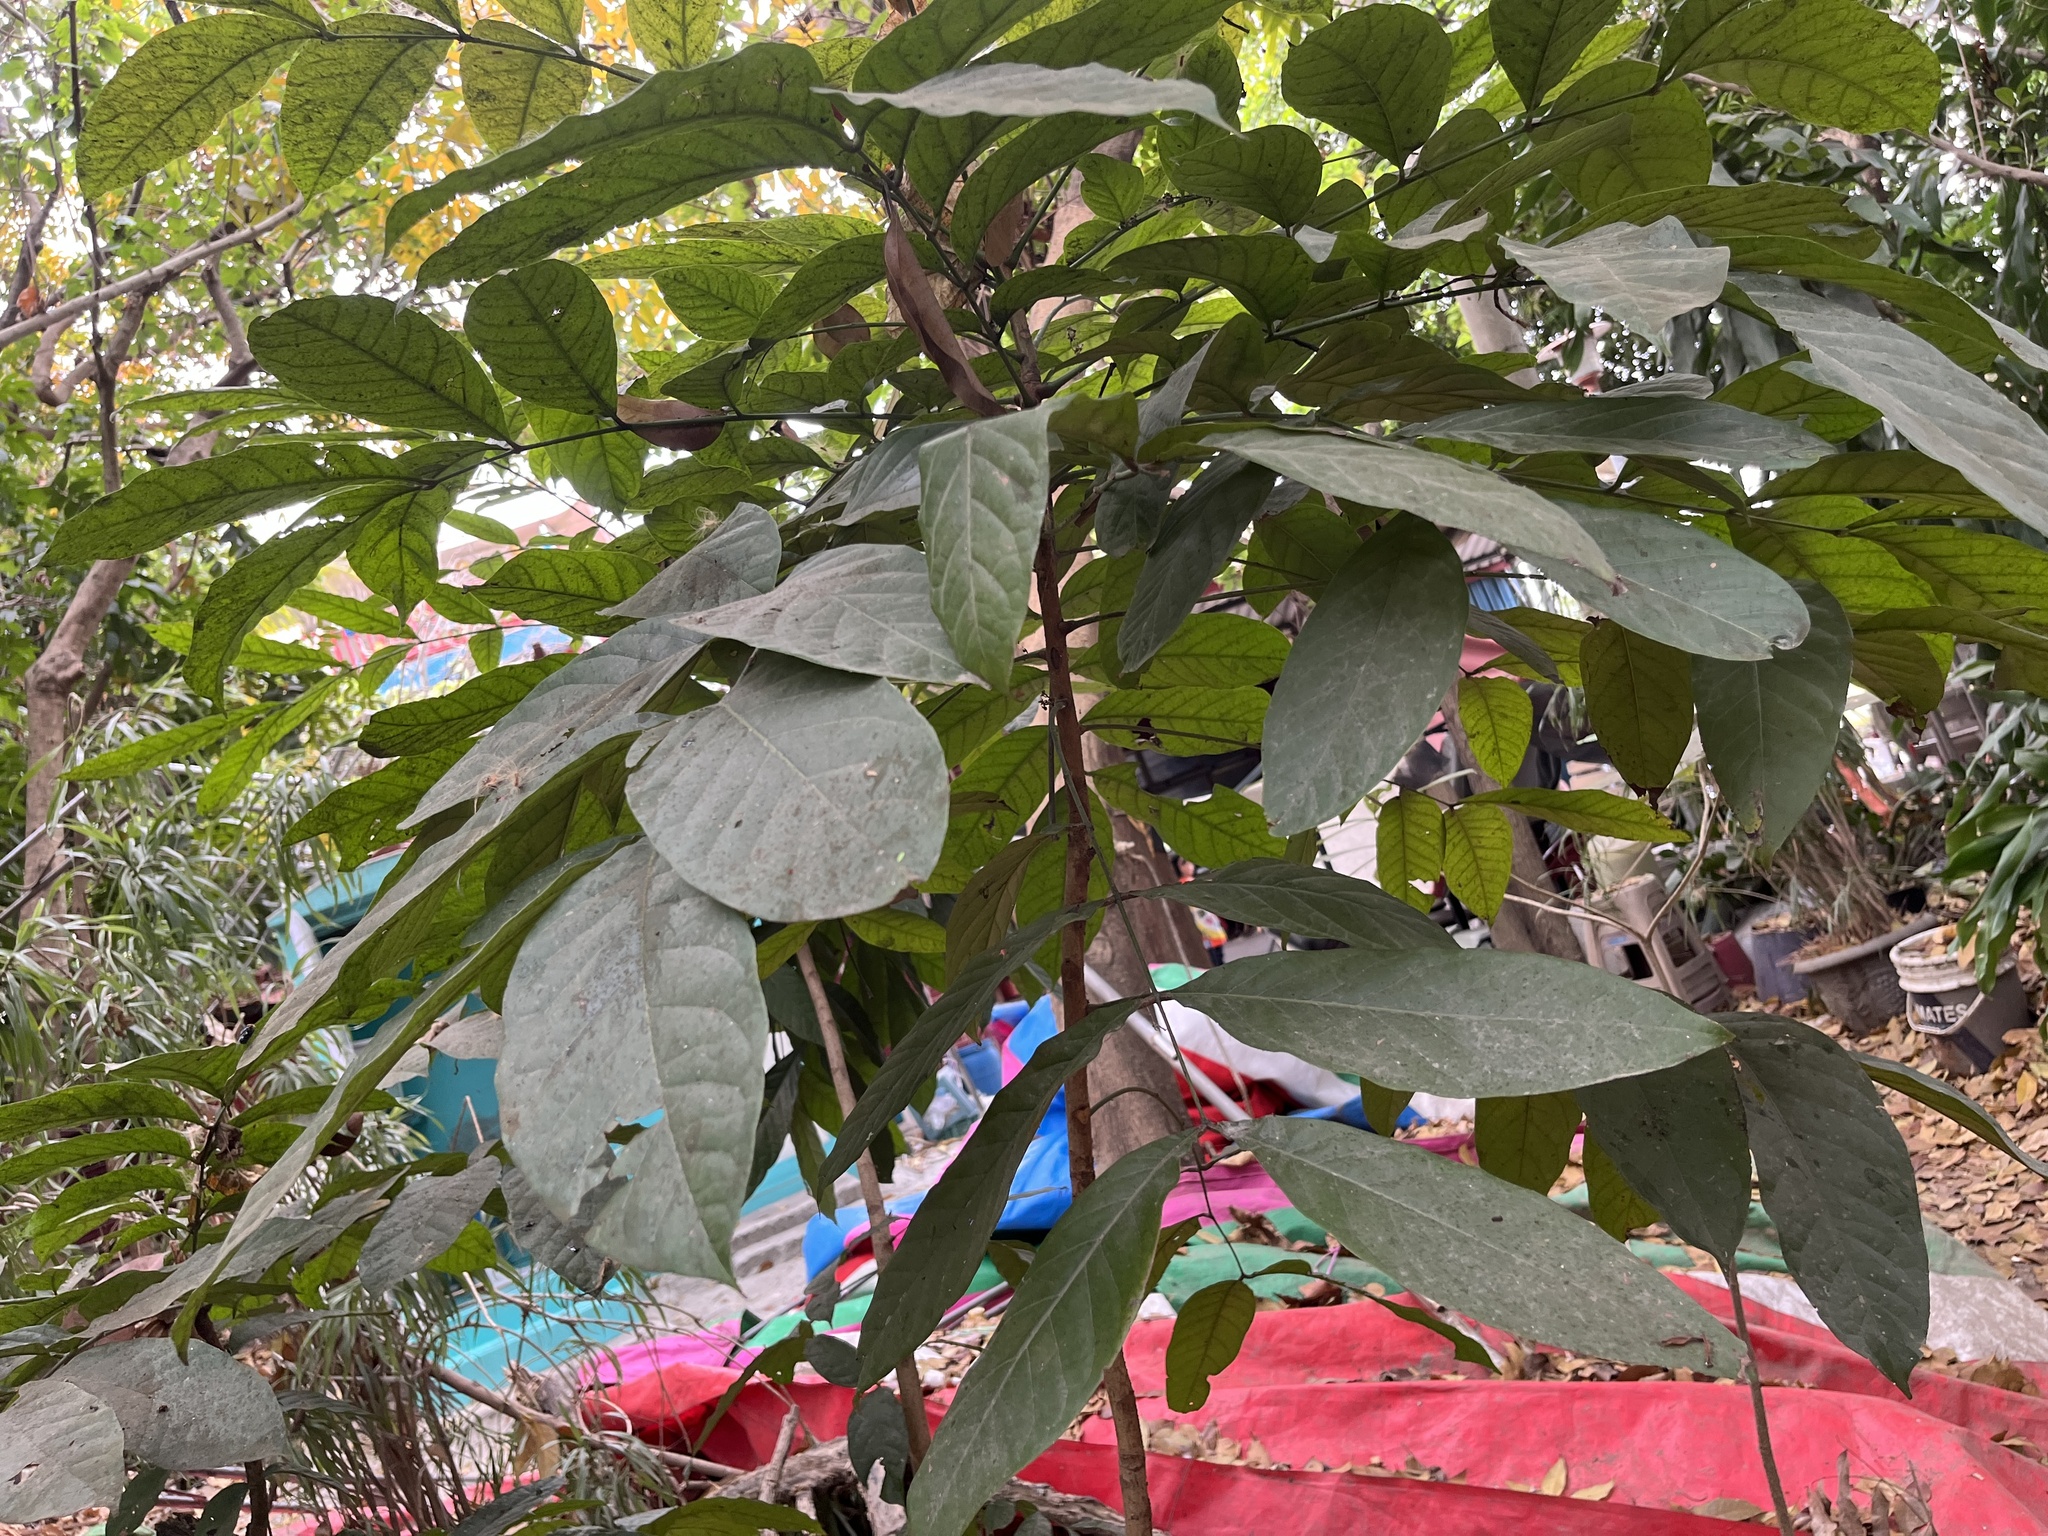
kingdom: Plantae
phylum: Tracheophyta
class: Magnoliopsida
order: Sapindales
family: Meliaceae
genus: Swietenia
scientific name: Swietenia macrophylla
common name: Honduras mahogany
